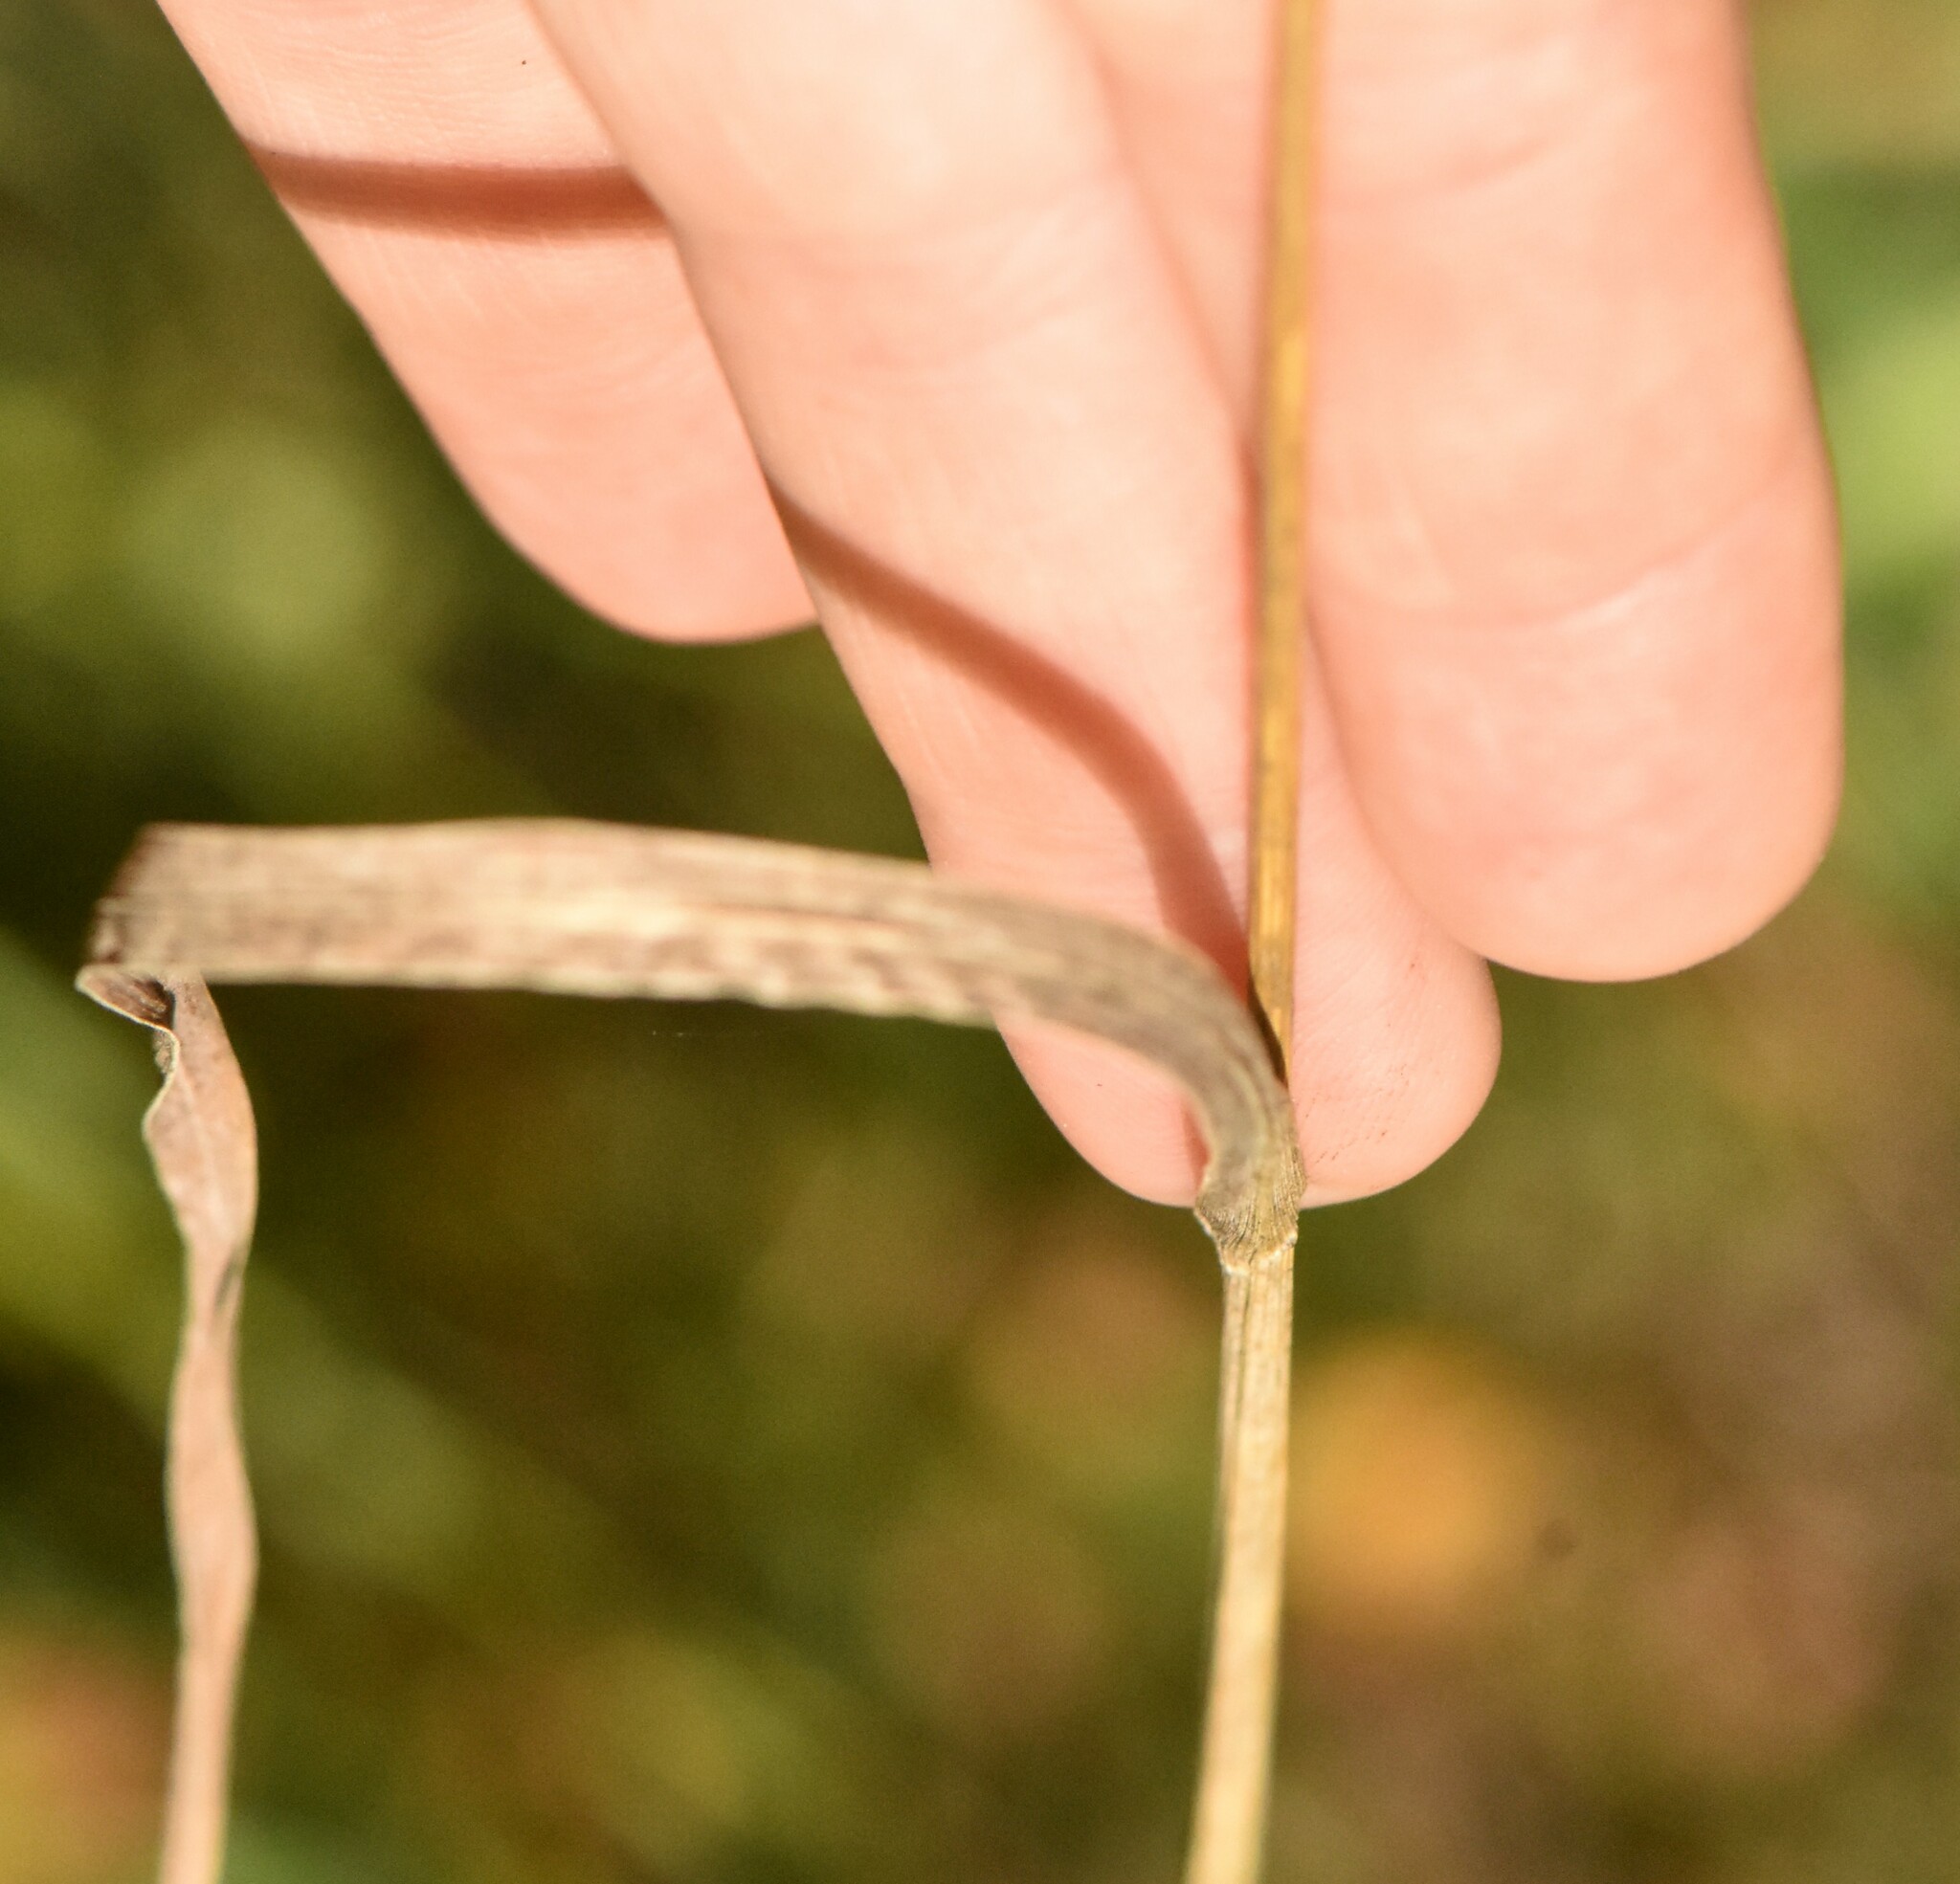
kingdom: Plantae
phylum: Tracheophyta
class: Liliopsida
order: Poales
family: Poaceae
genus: Dactylis
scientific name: Dactylis glomerata
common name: Orchardgrass
